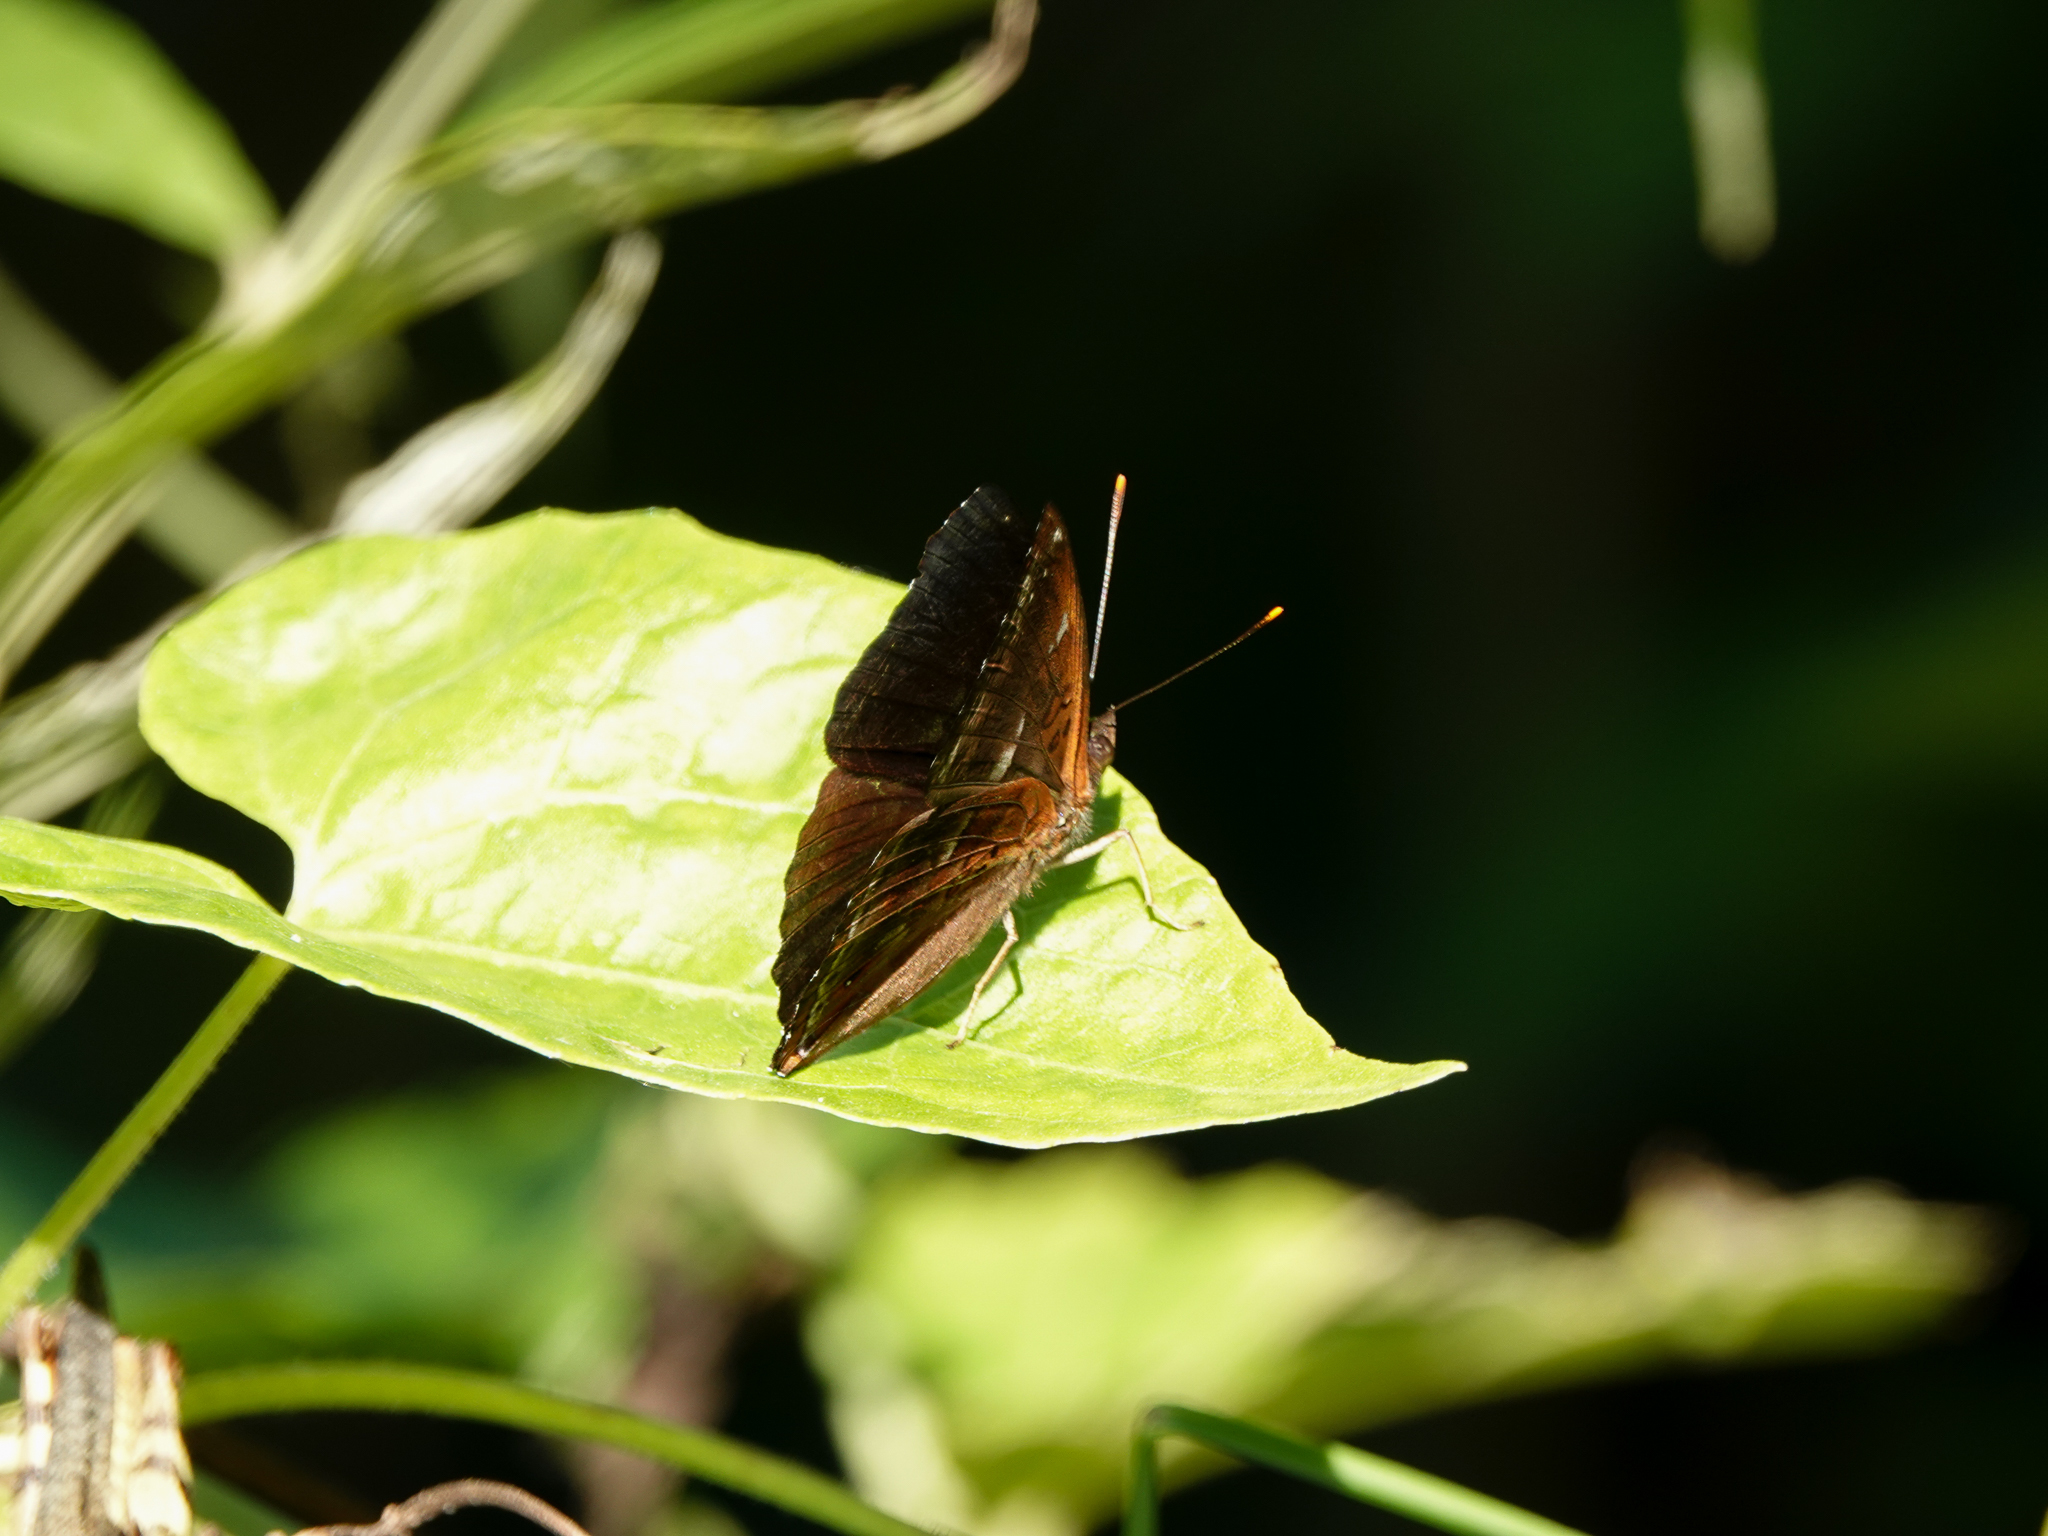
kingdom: Animalia
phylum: Arthropoda
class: Insecta
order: Lepidoptera
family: Nymphalidae
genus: Apatura
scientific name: Apatura Rohana spec
